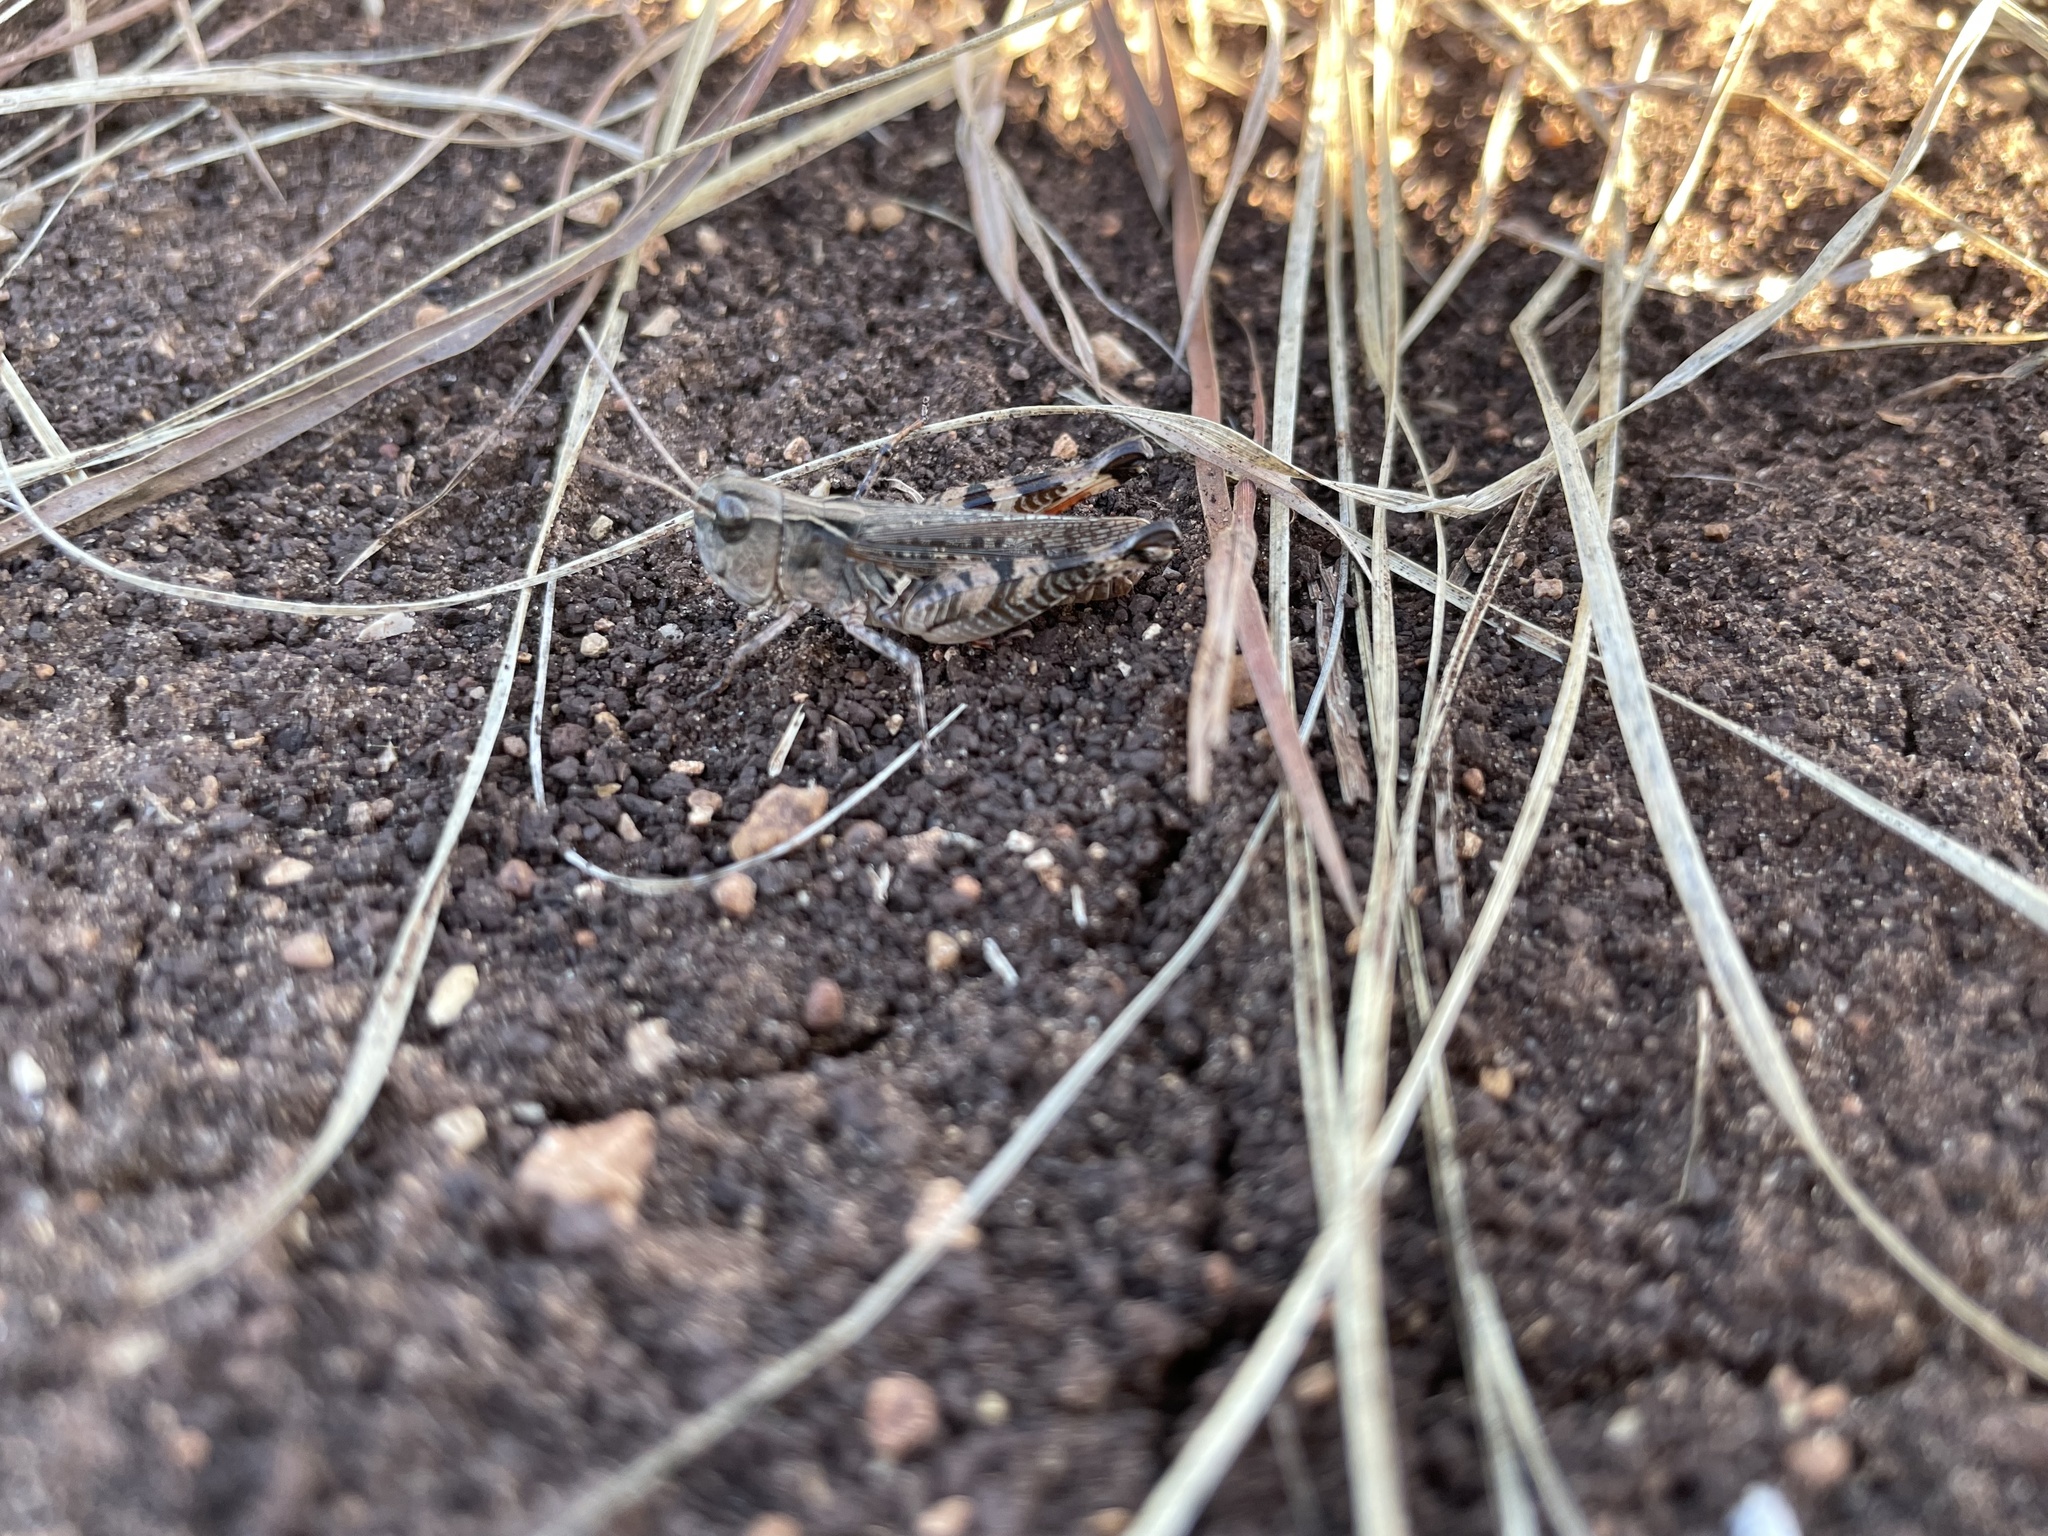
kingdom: Animalia
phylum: Arthropoda
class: Insecta
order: Orthoptera
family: Acrididae
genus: Ageneotettix
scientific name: Ageneotettix deorum
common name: White-whiskered grasshopper
